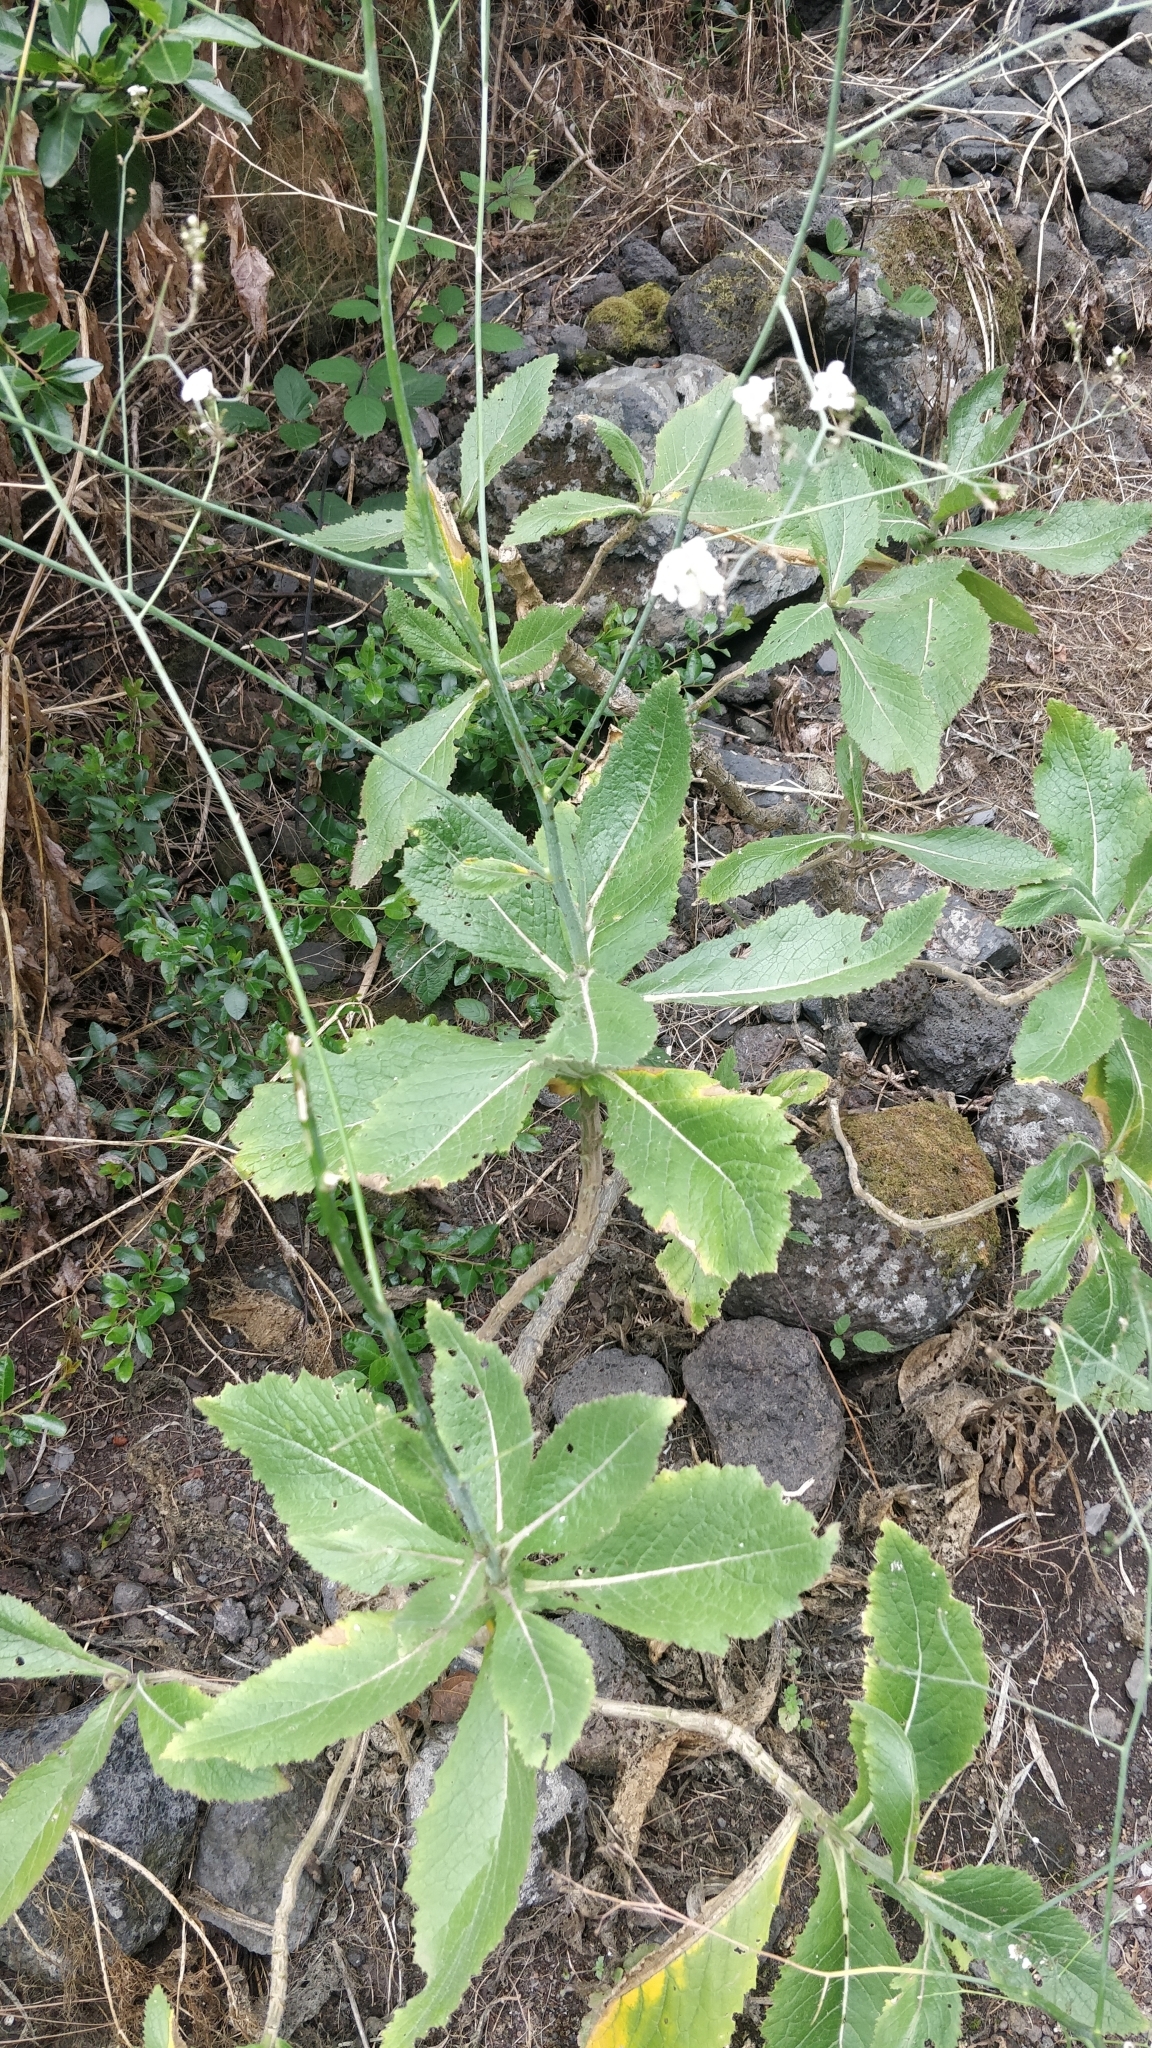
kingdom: Plantae
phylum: Tracheophyta
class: Magnoliopsida
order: Brassicales
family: Brassicaceae
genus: Crambe
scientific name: Crambe scaberrima
